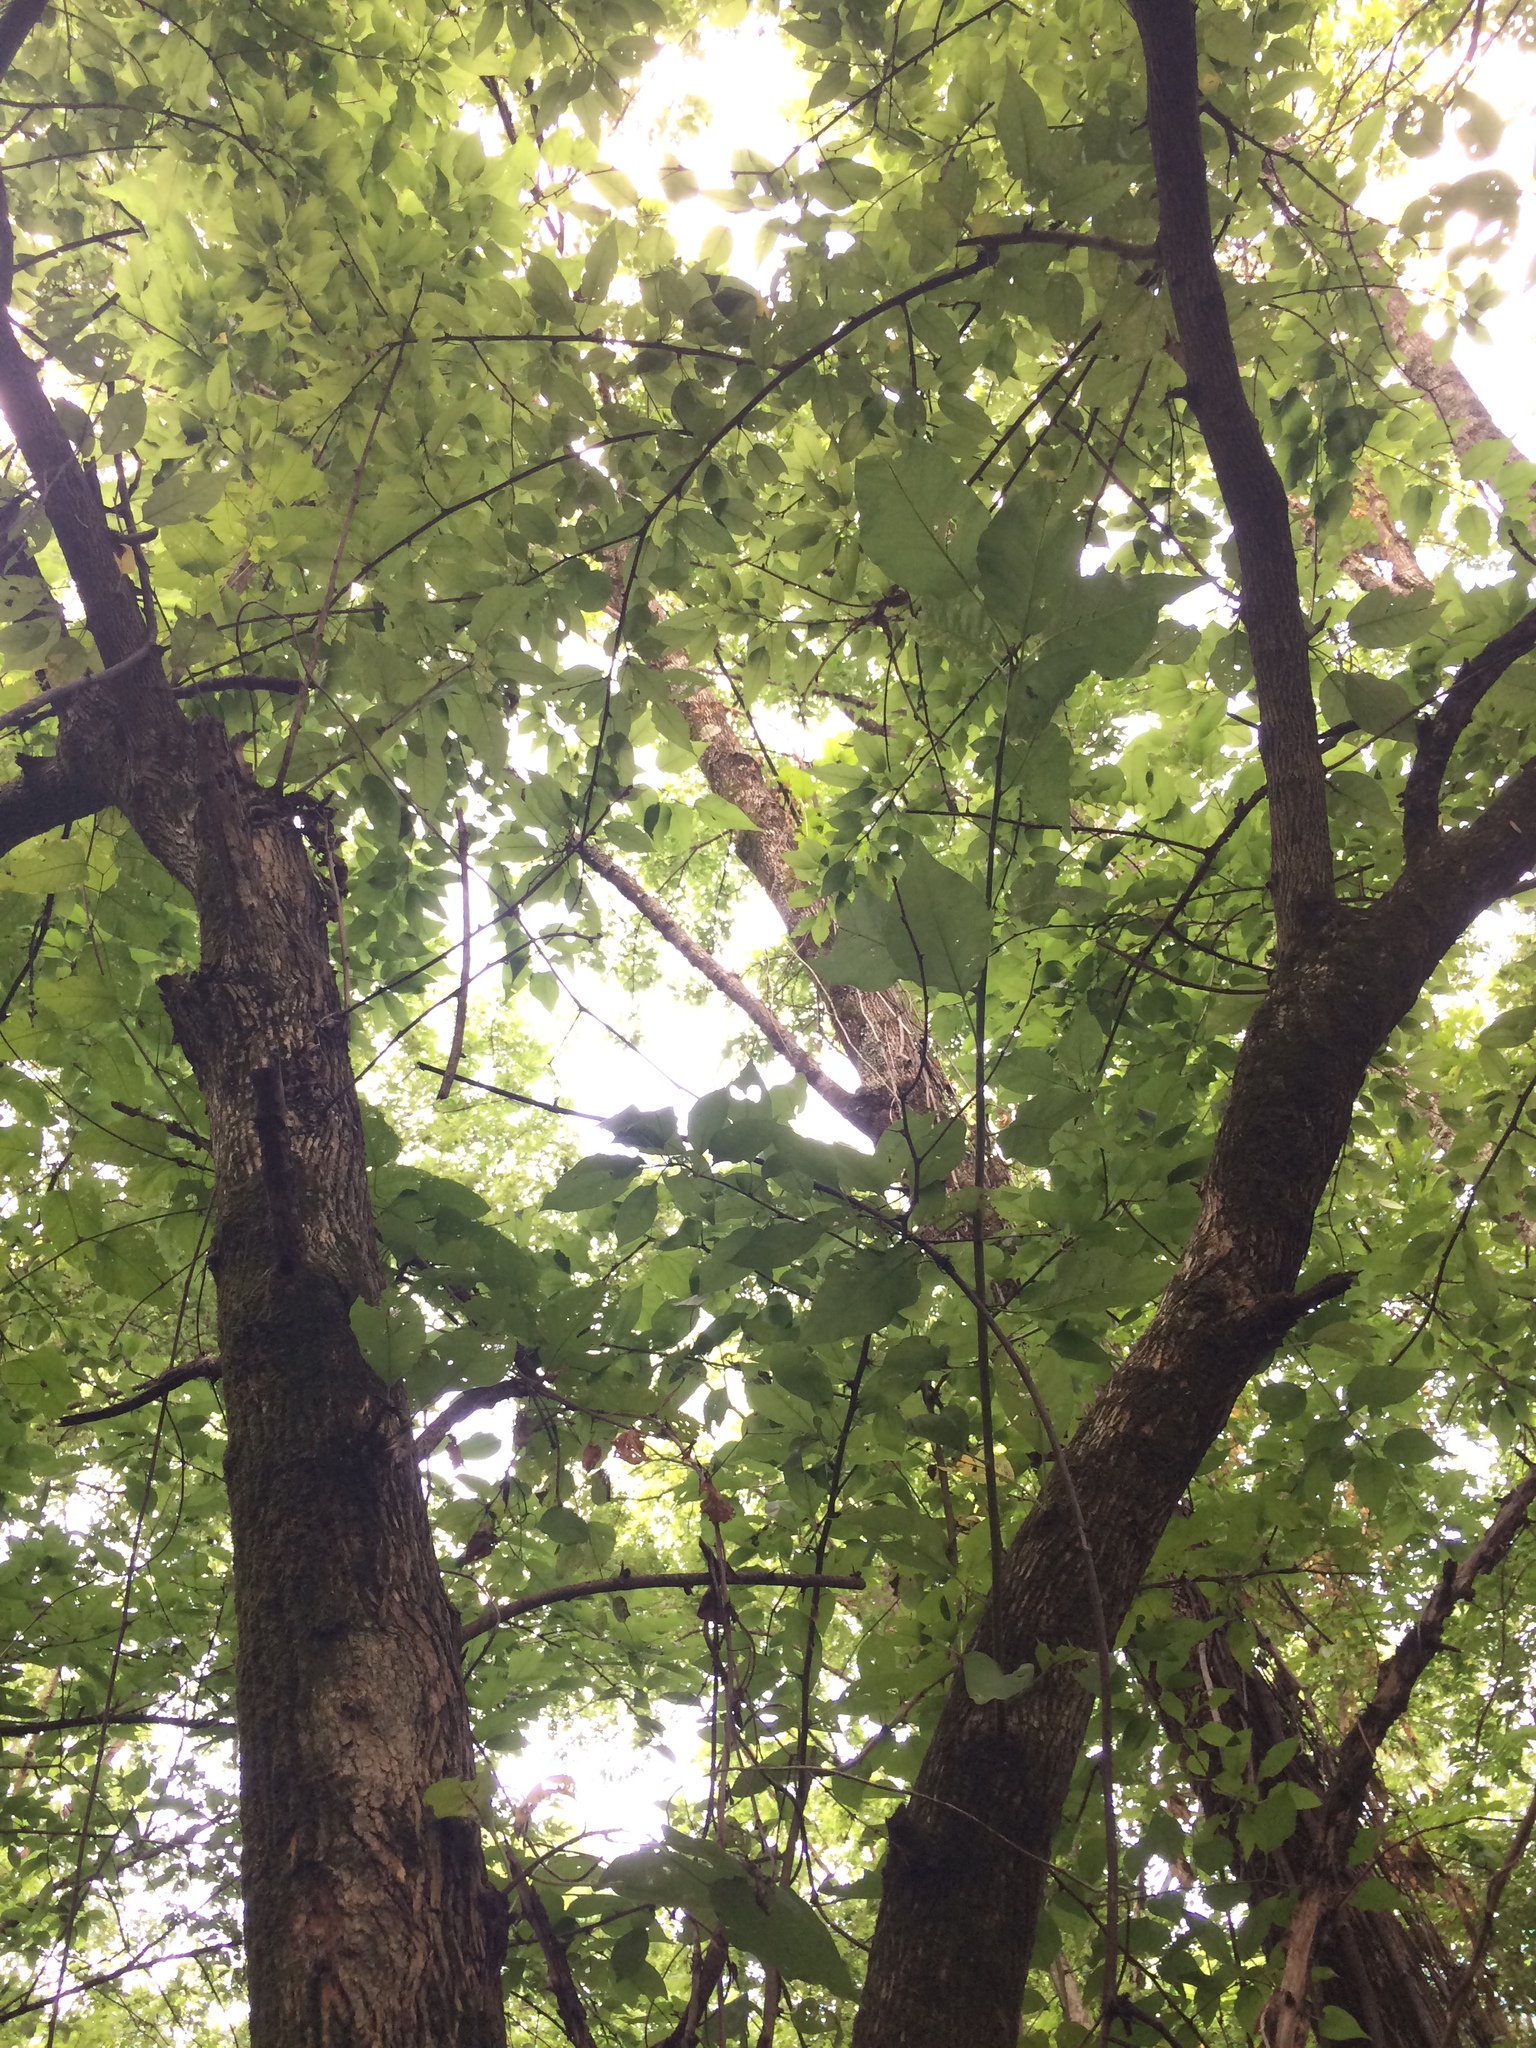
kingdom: Plantae
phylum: Tracheophyta
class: Magnoliopsida
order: Rosales
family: Moraceae
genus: Maclura
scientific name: Maclura pomifera
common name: Osage-orange
